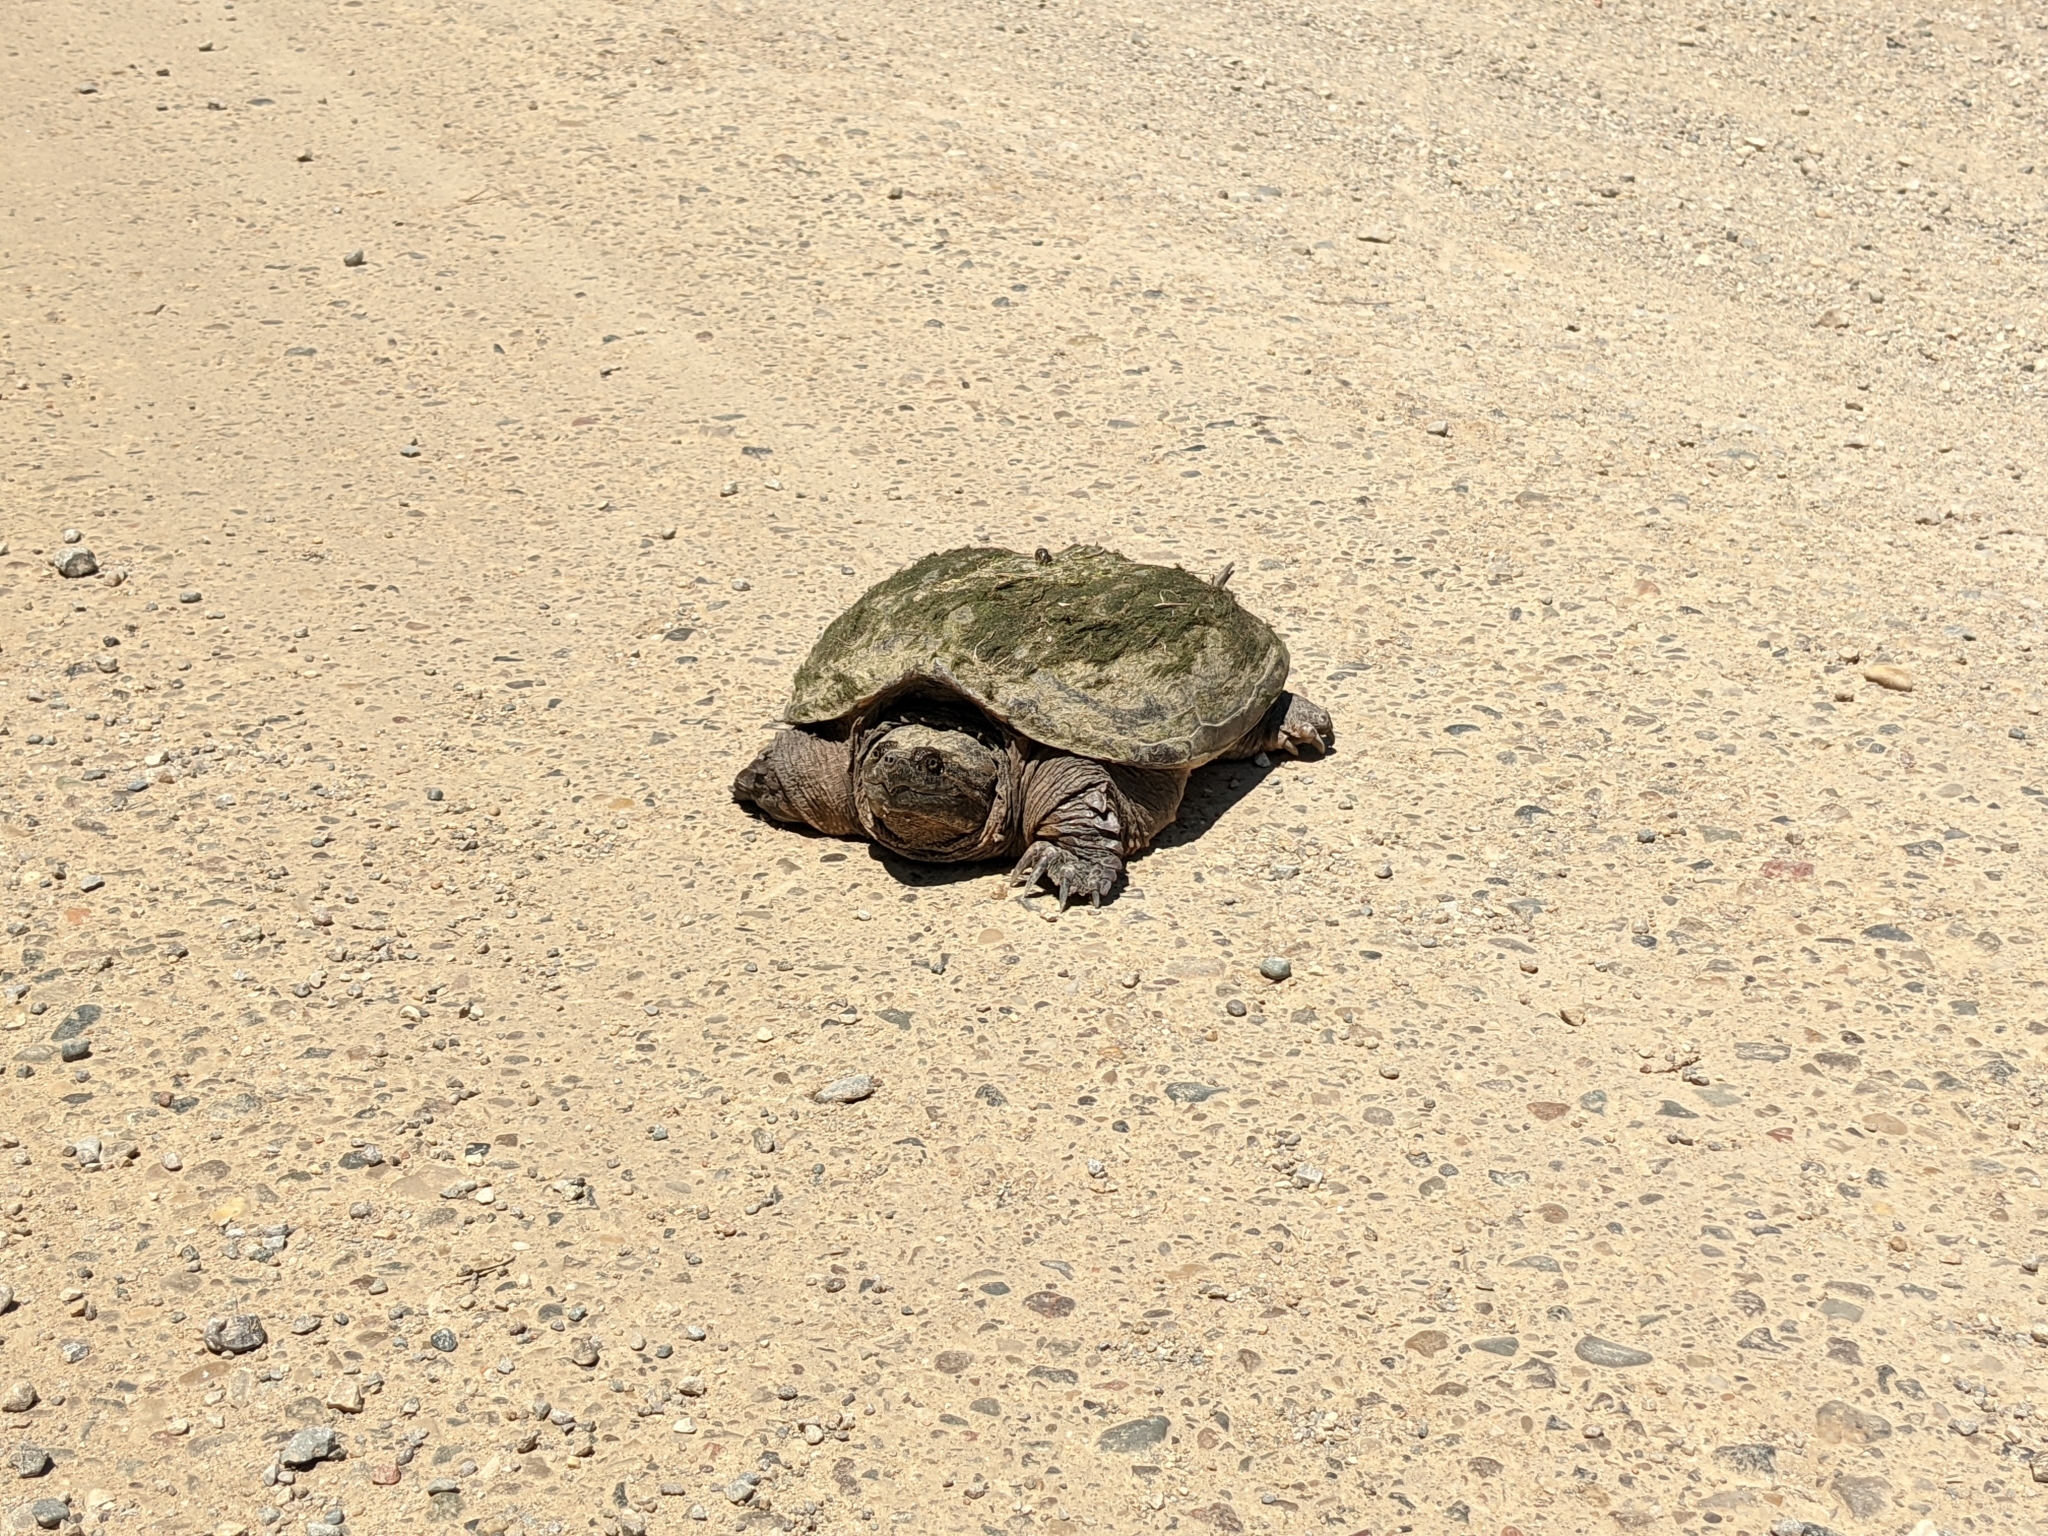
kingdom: Animalia
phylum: Chordata
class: Testudines
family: Chelydridae
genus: Chelydra
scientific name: Chelydra serpentina
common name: Common snapping turtle
